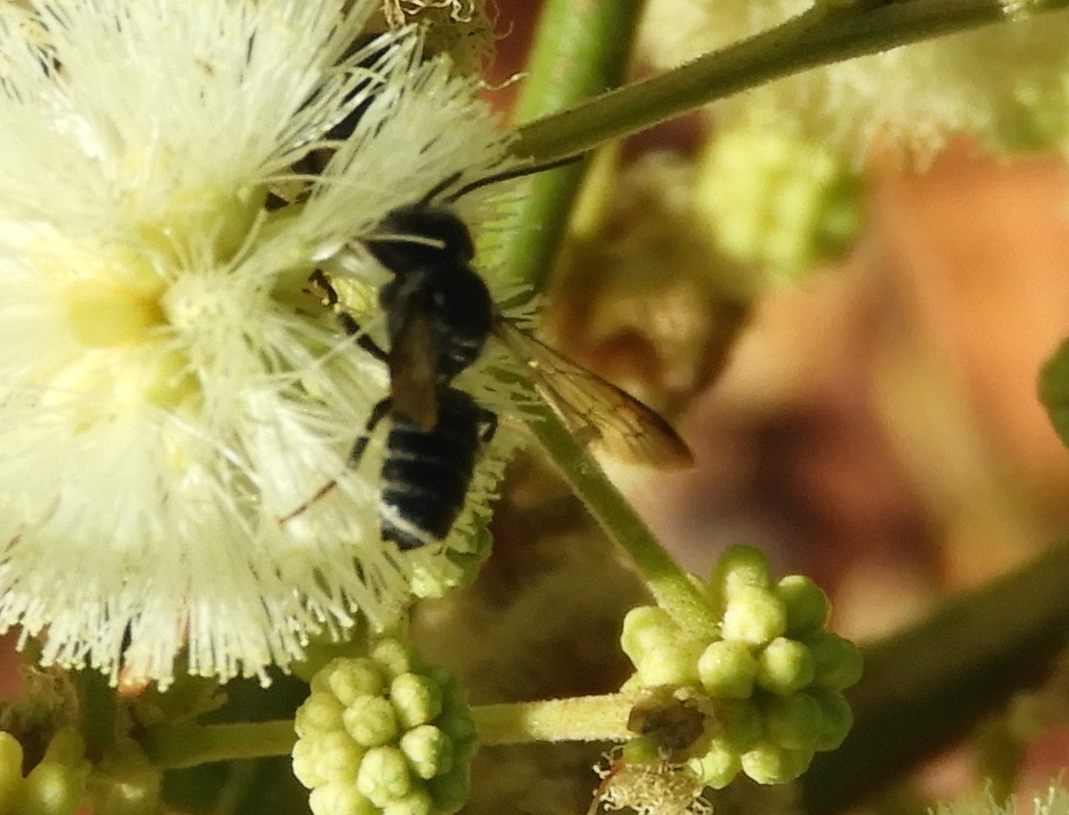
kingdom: Animalia
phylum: Arthropoda
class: Insecta
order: Hymenoptera
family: Megachilidae
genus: Megachile
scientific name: Megachile
